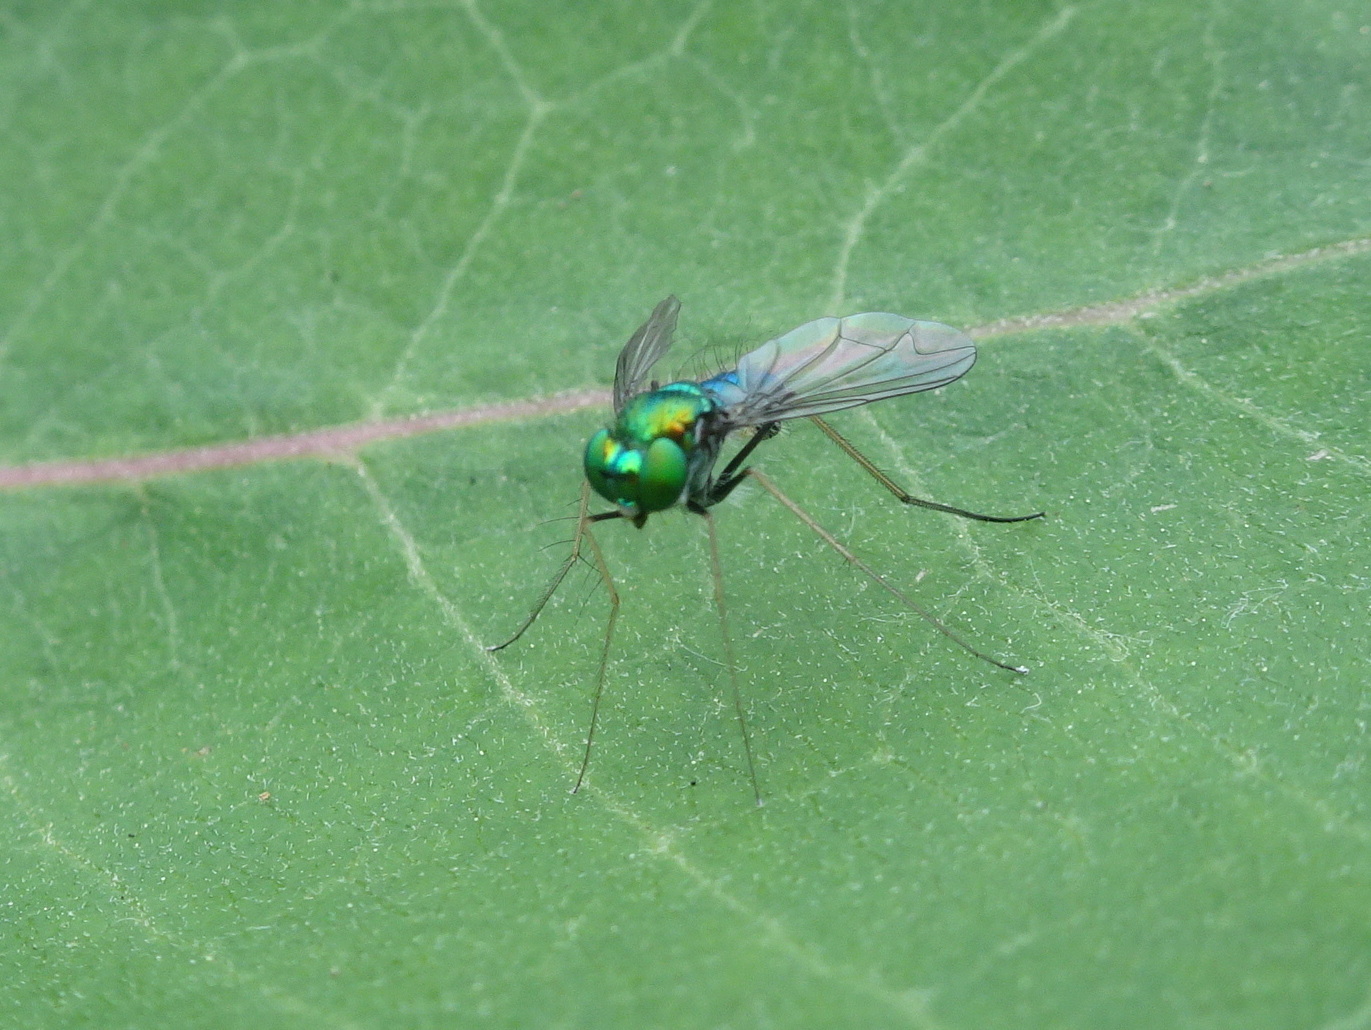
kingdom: Animalia
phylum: Arthropoda
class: Insecta
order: Diptera
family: Dolichopodidae
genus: Condylostylus
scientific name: Condylostylus comatus
